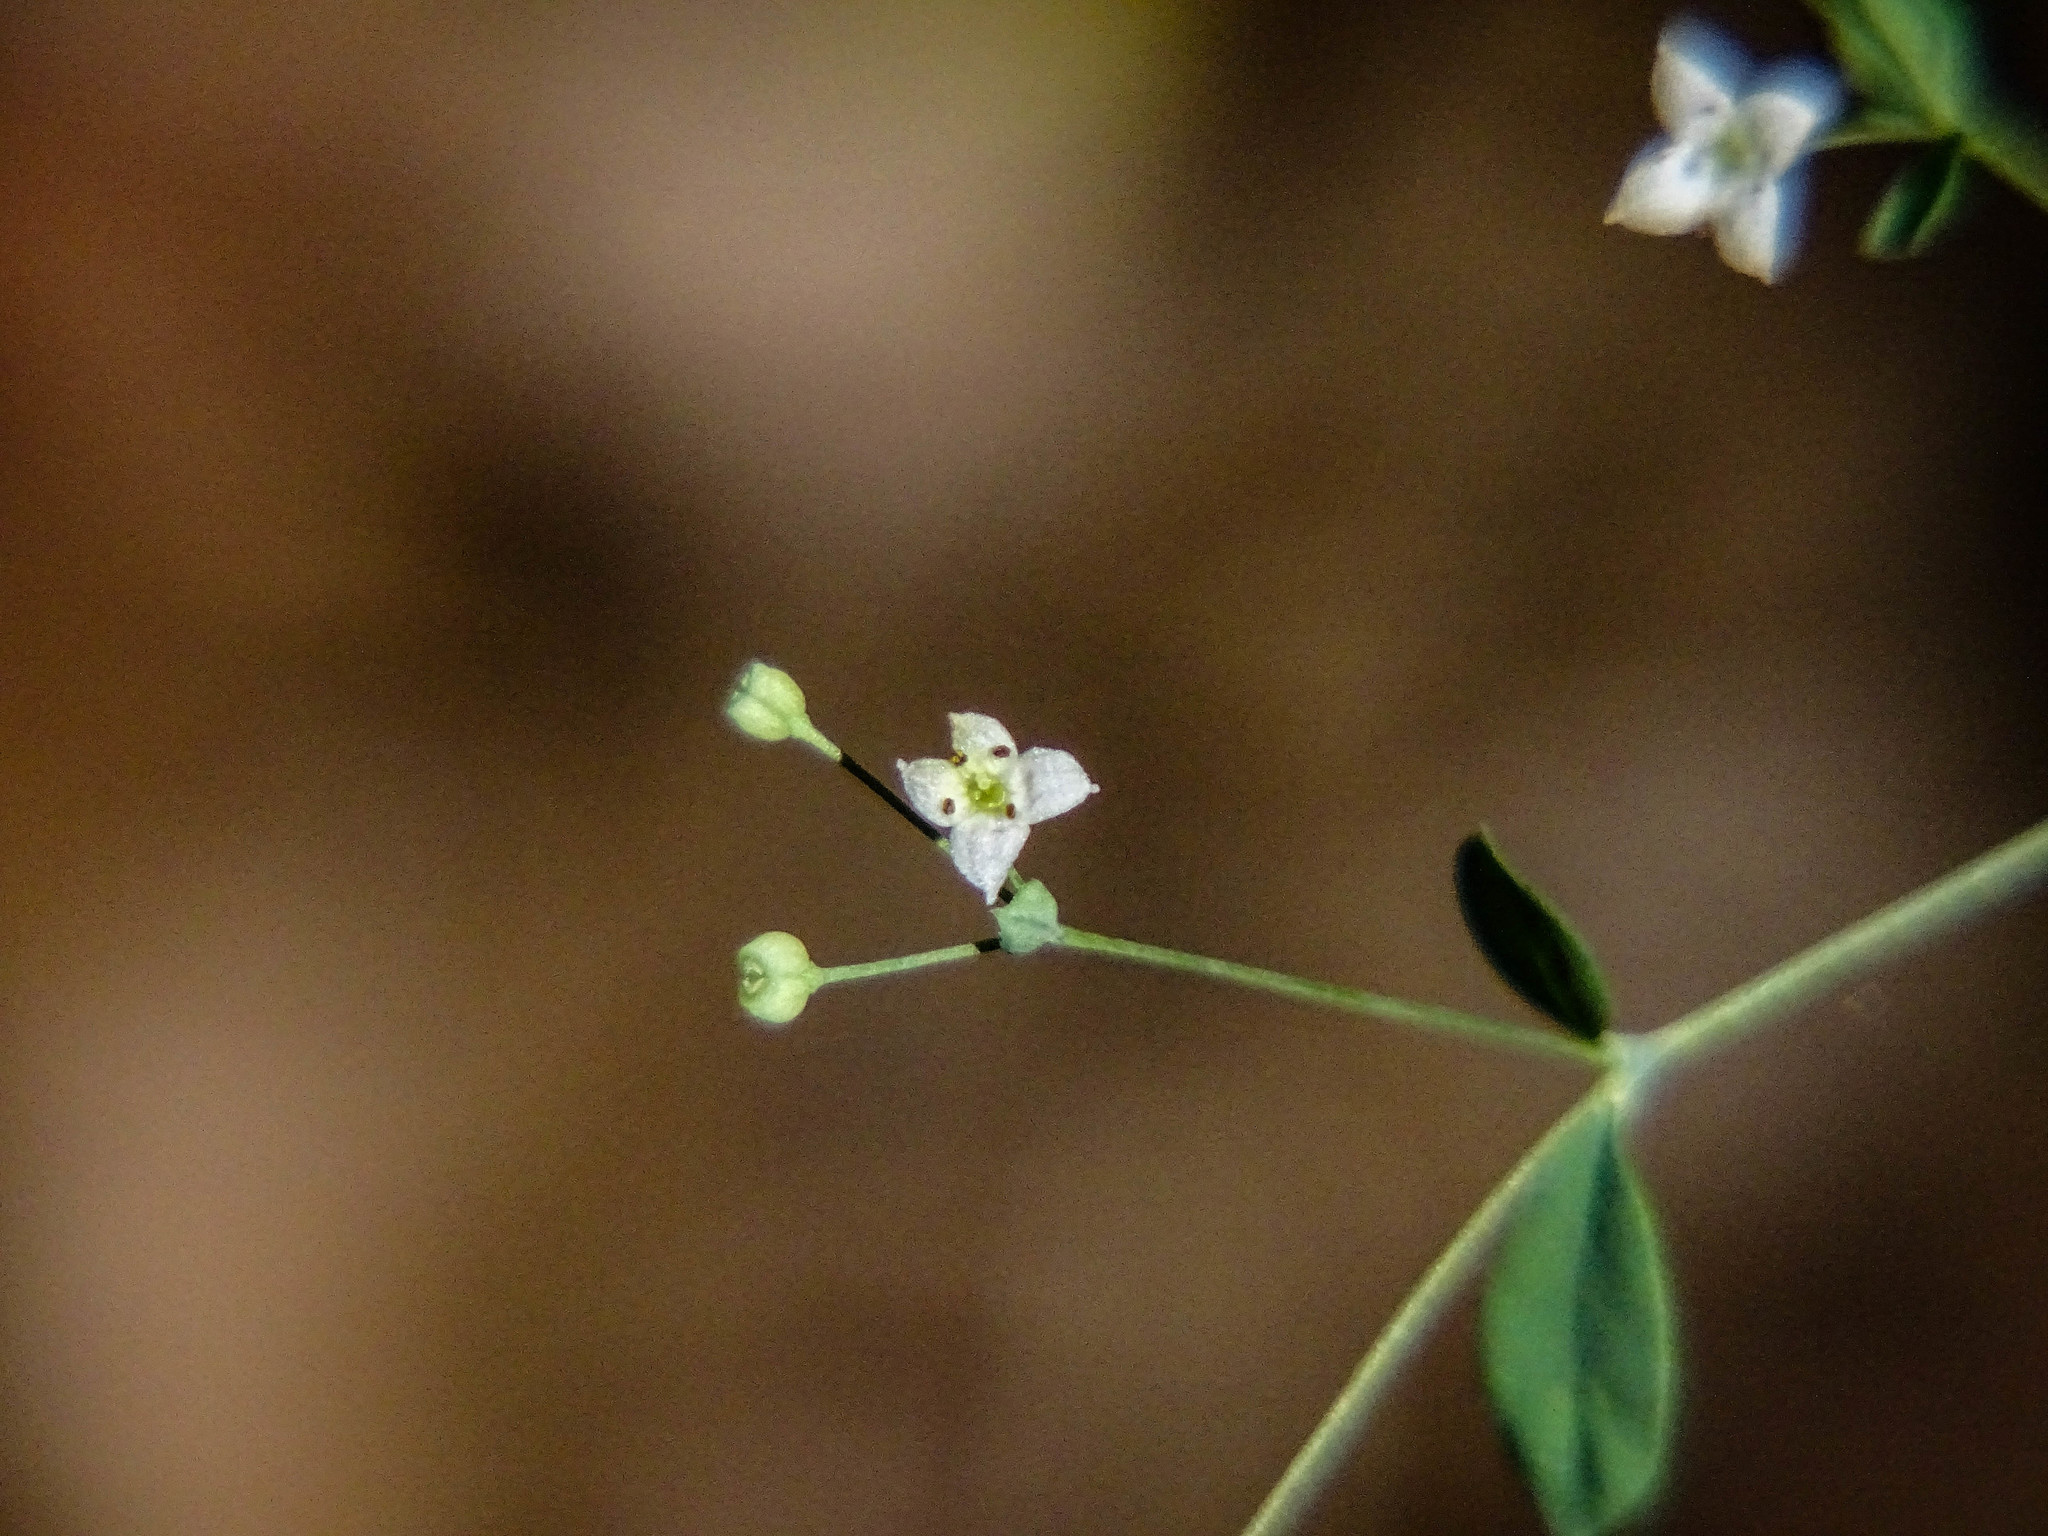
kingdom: Plantae
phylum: Tracheophyta
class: Magnoliopsida
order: Gentianales
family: Rubiaceae
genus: Galium
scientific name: Galium sylvaticum
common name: Wood bedstraw
